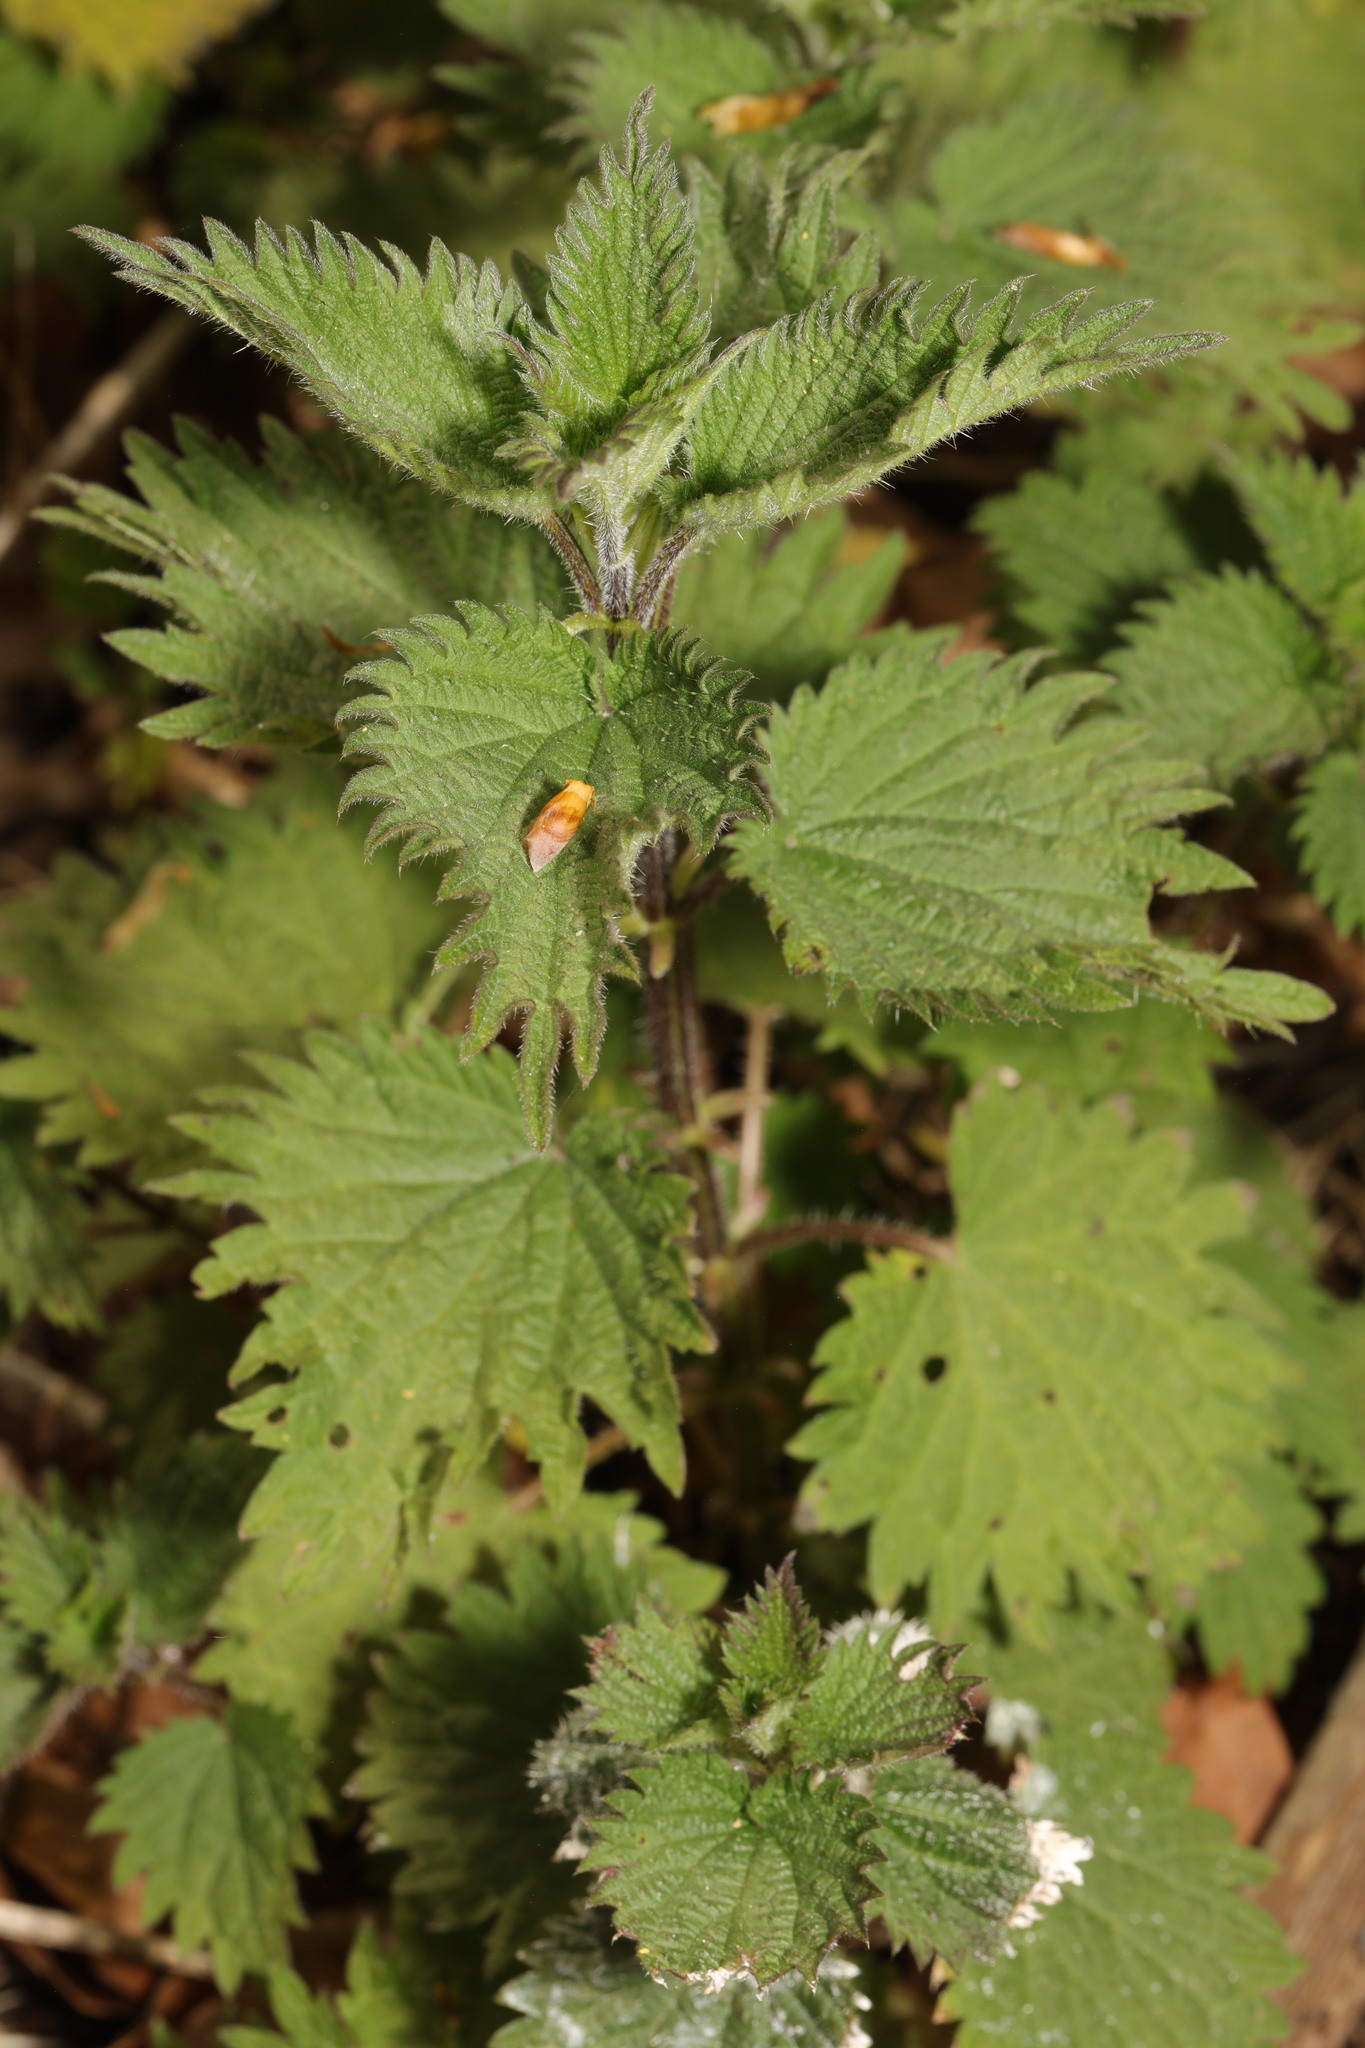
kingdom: Plantae
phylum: Tracheophyta
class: Magnoliopsida
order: Rosales
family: Urticaceae
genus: Urtica
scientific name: Urtica dioica
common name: Common nettle
